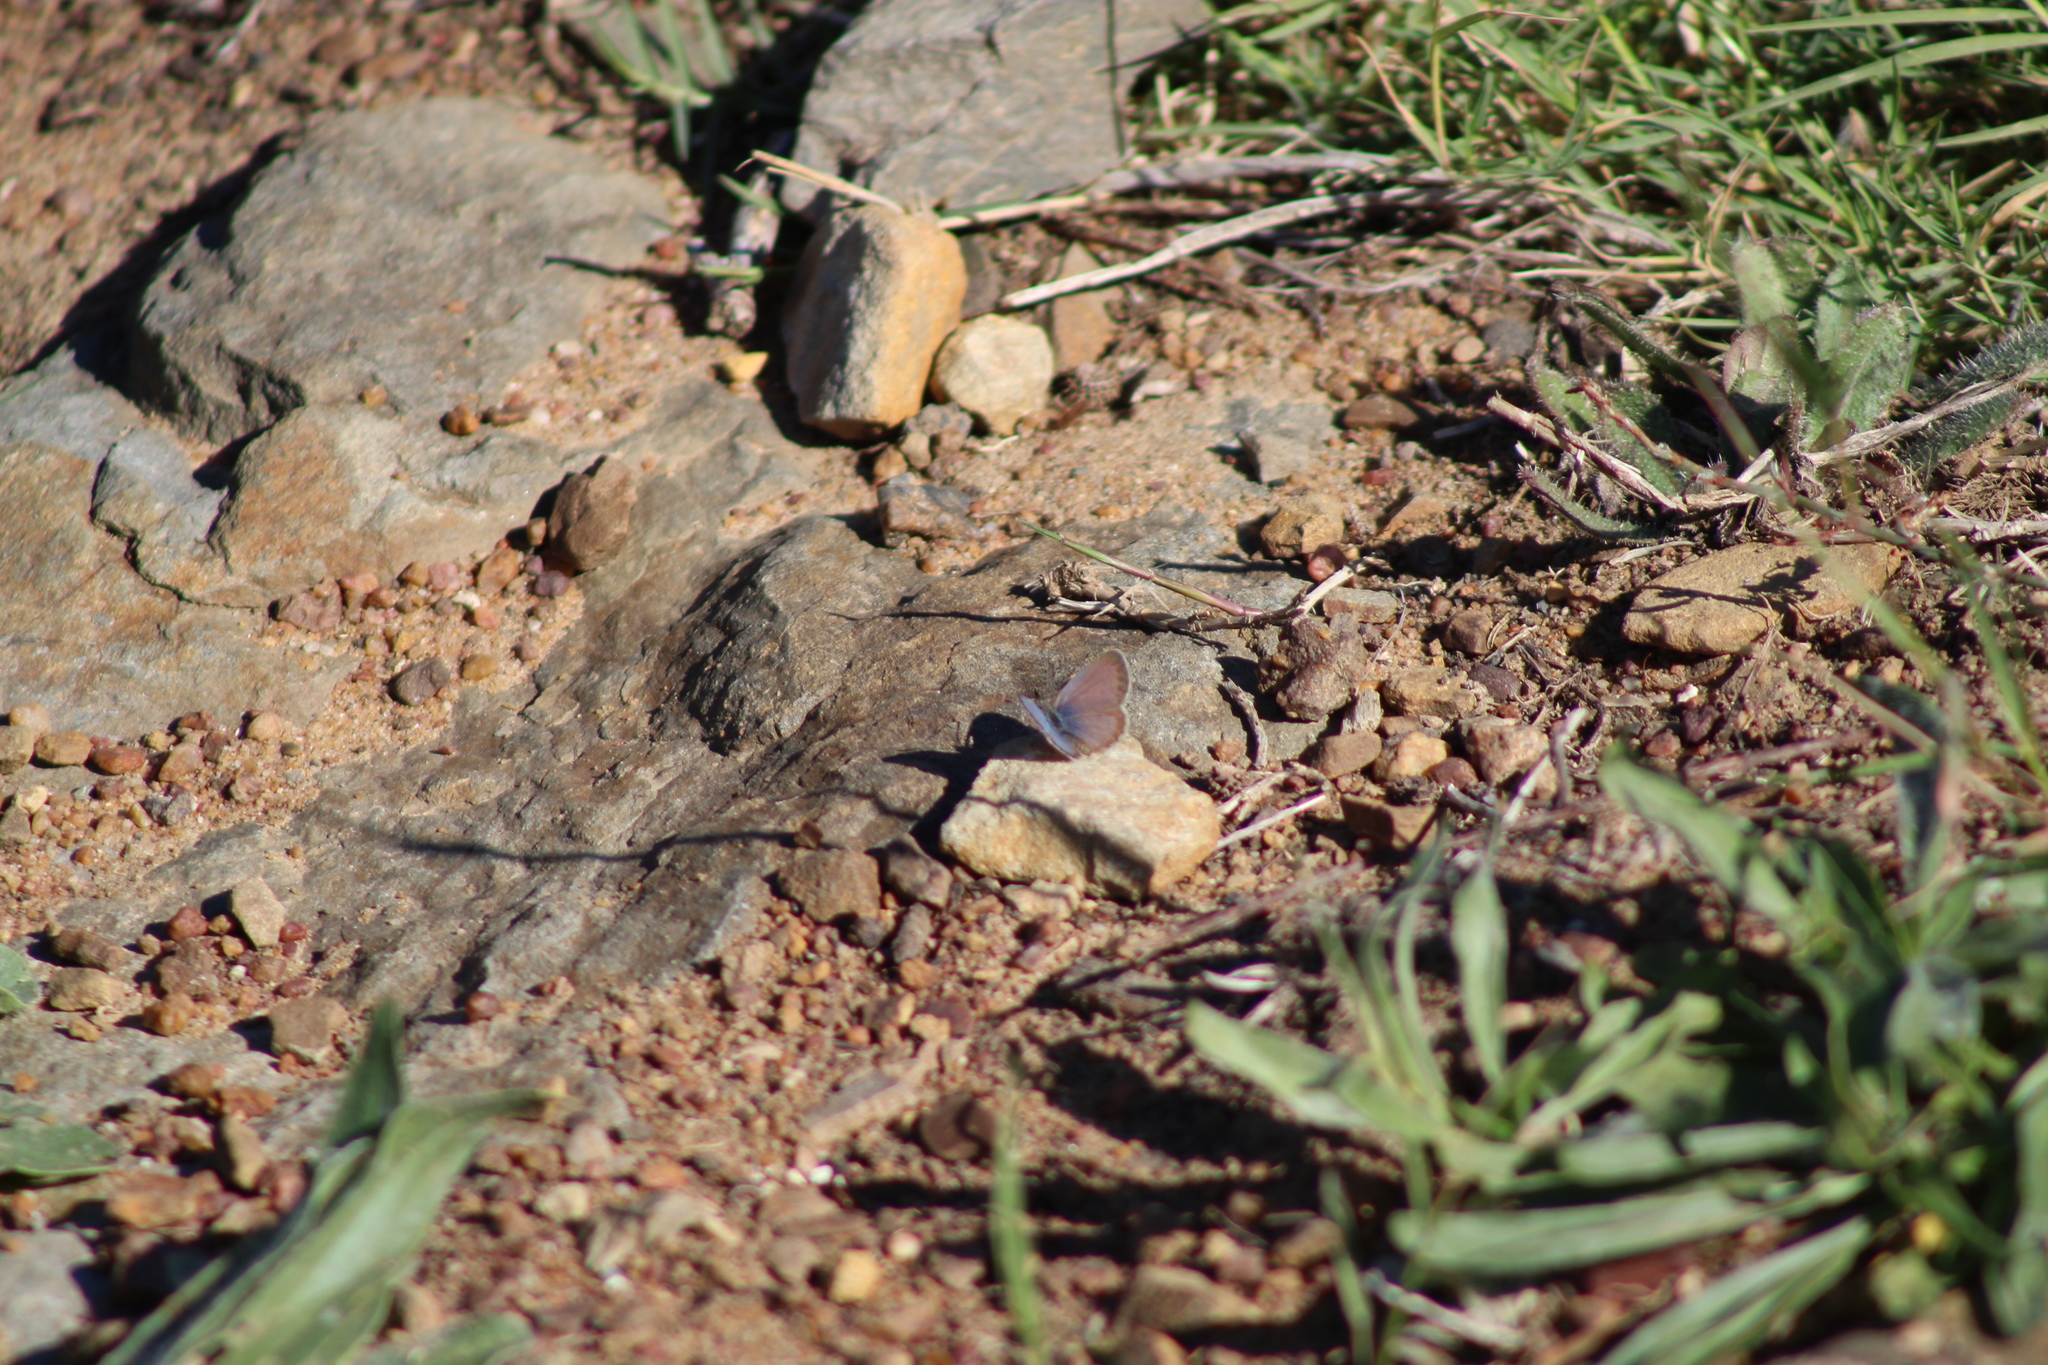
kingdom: Animalia
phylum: Arthropoda
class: Insecta
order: Lepidoptera
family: Lycaenidae
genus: Zizeeria
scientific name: Zizeeria knysna
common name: African grass blue
